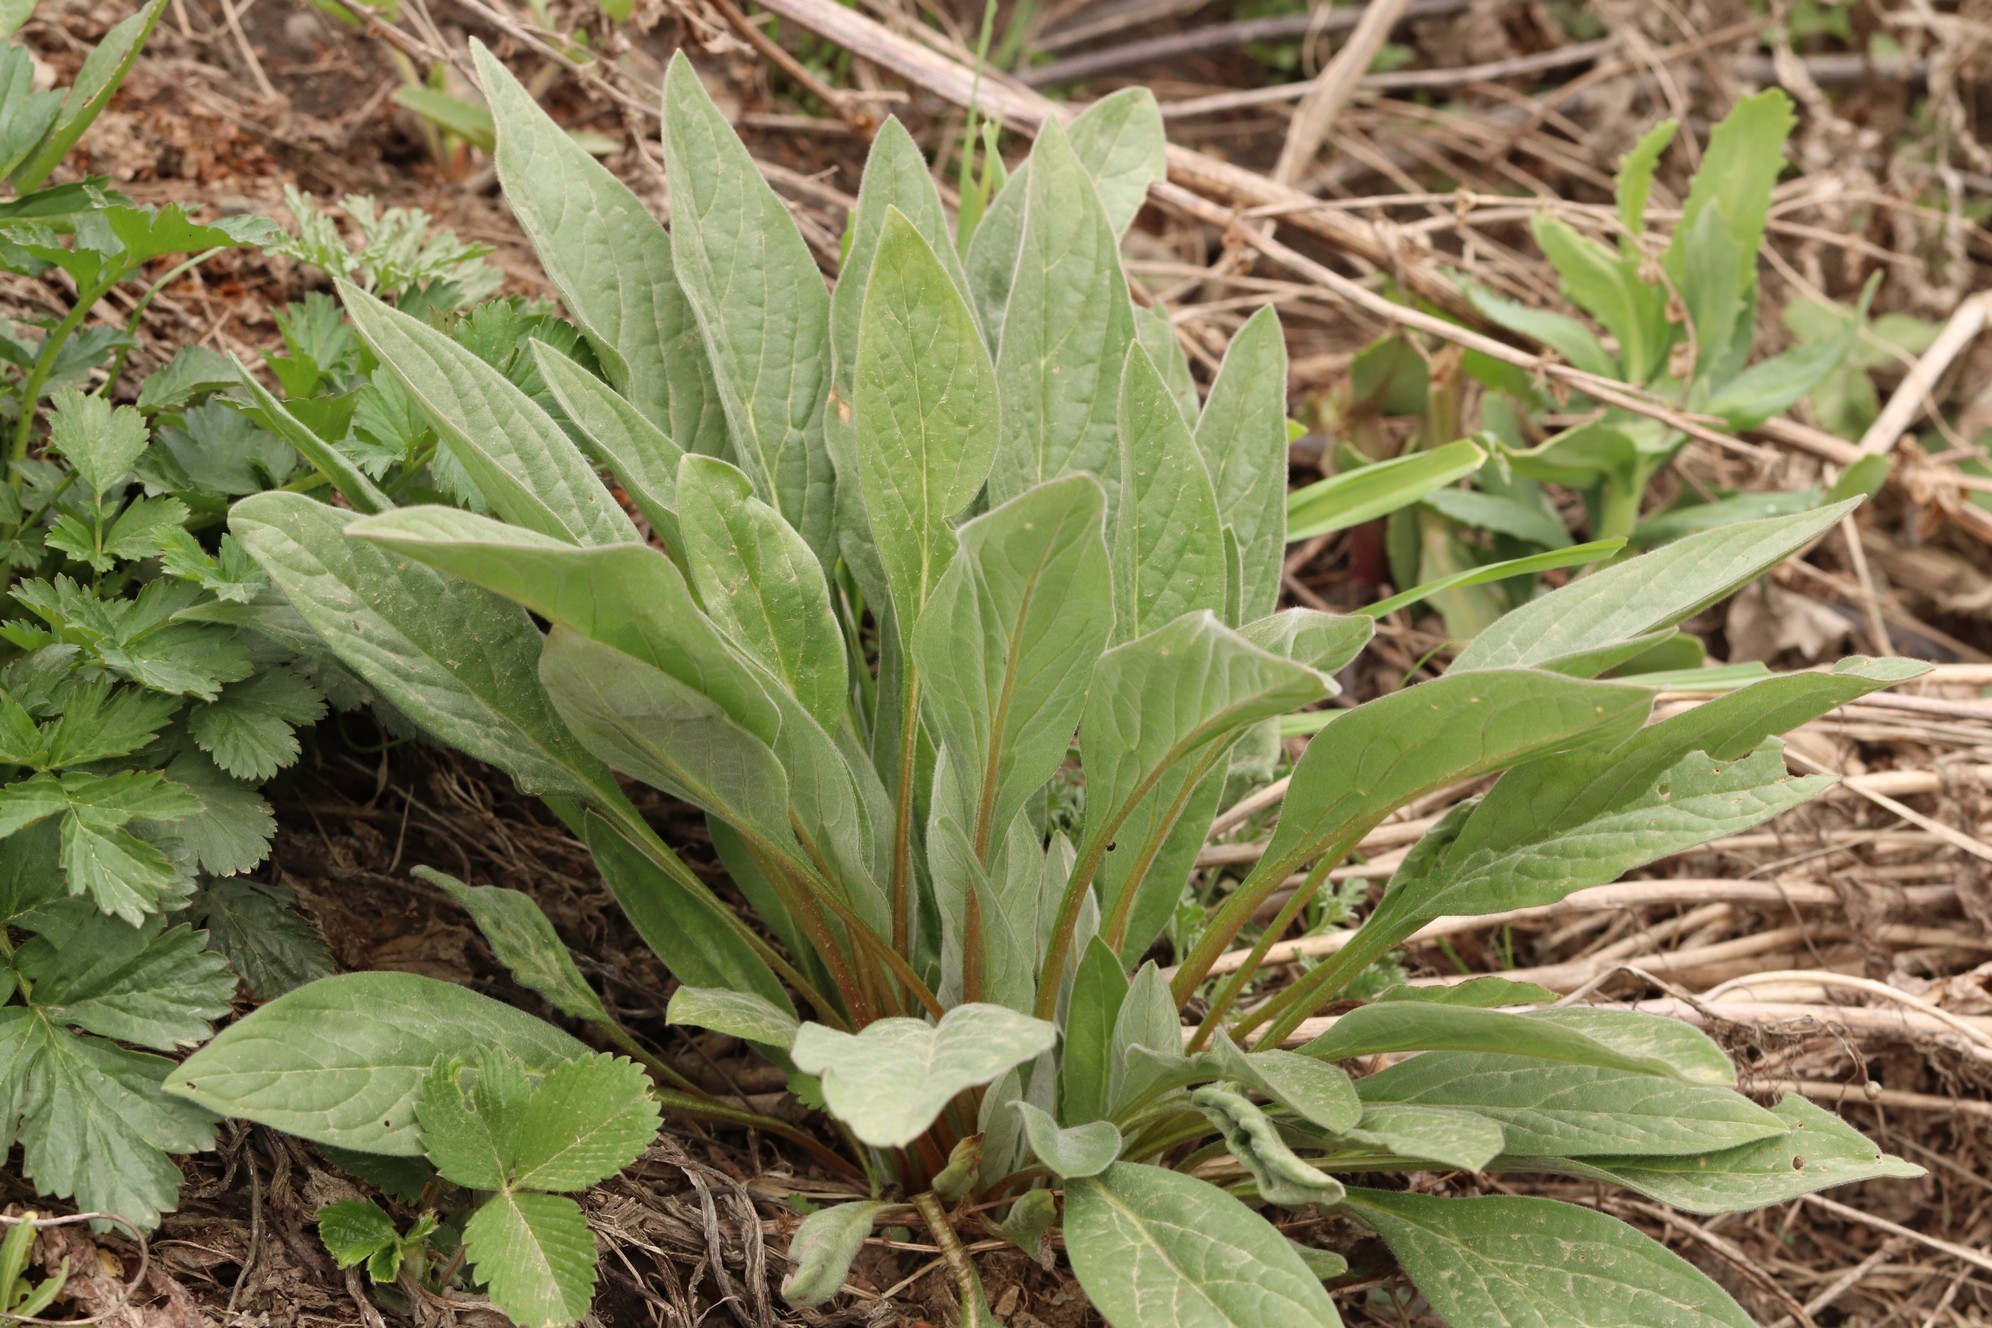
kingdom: Plantae
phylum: Tracheophyta
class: Magnoliopsida
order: Boraginales
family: Boraginaceae
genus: Cynoglossum
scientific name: Cynoglossum officinale
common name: Hound's-tongue
